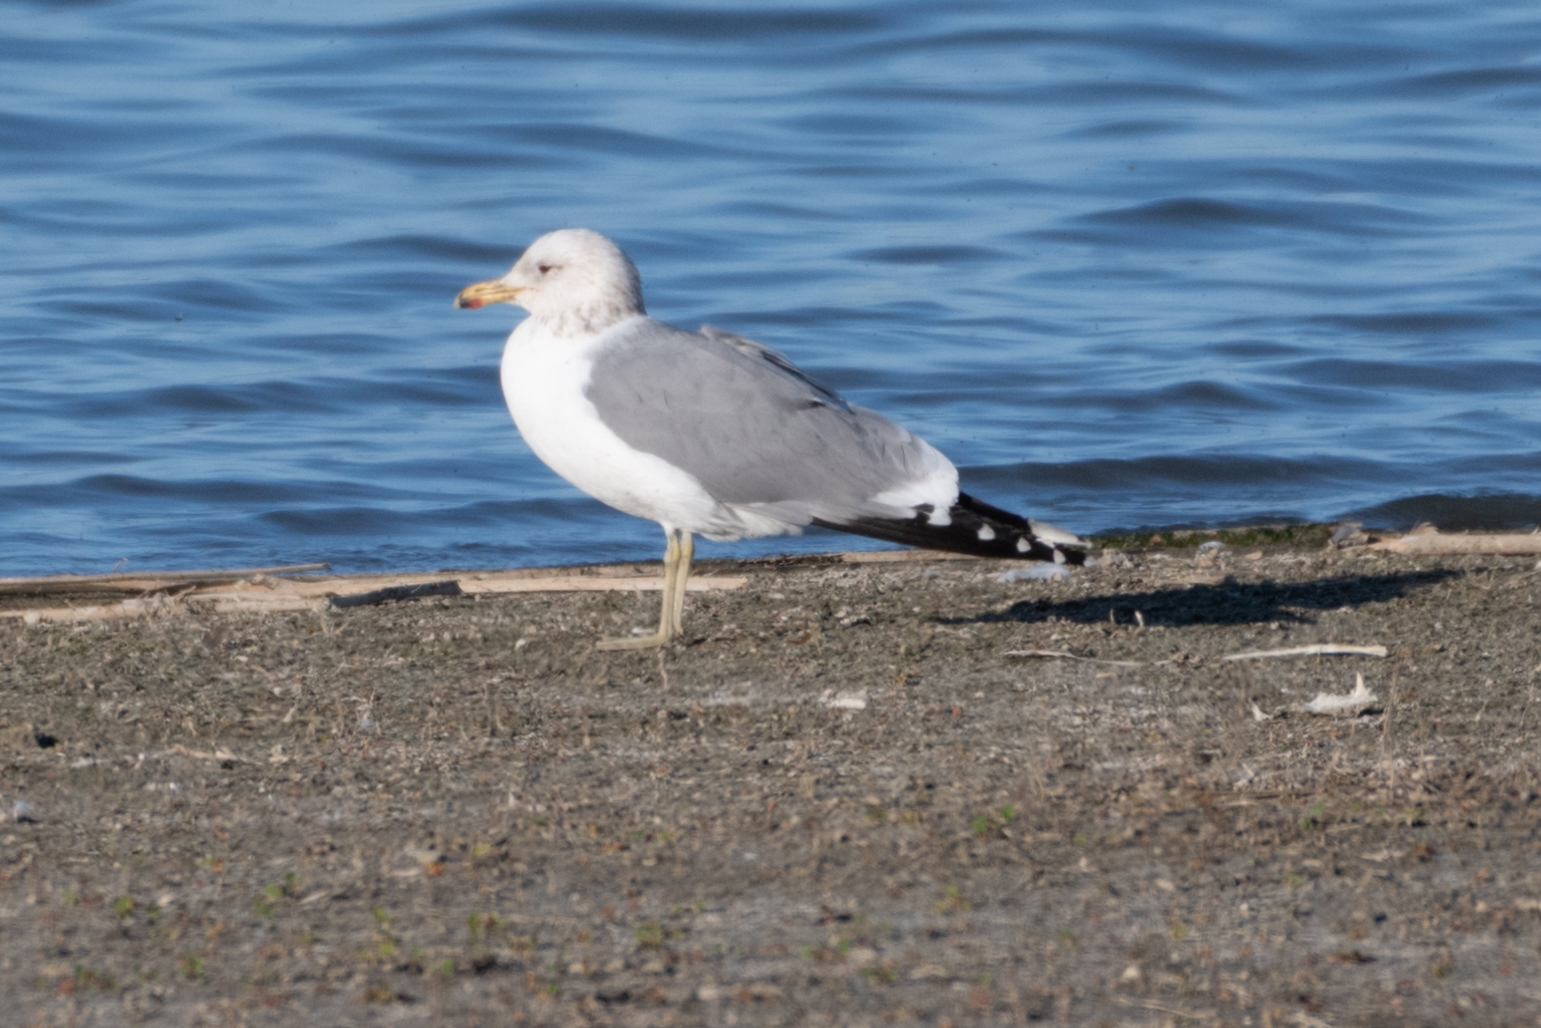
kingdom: Animalia
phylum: Chordata
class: Aves
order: Charadriiformes
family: Laridae
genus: Larus
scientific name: Larus californicus
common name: California gull
